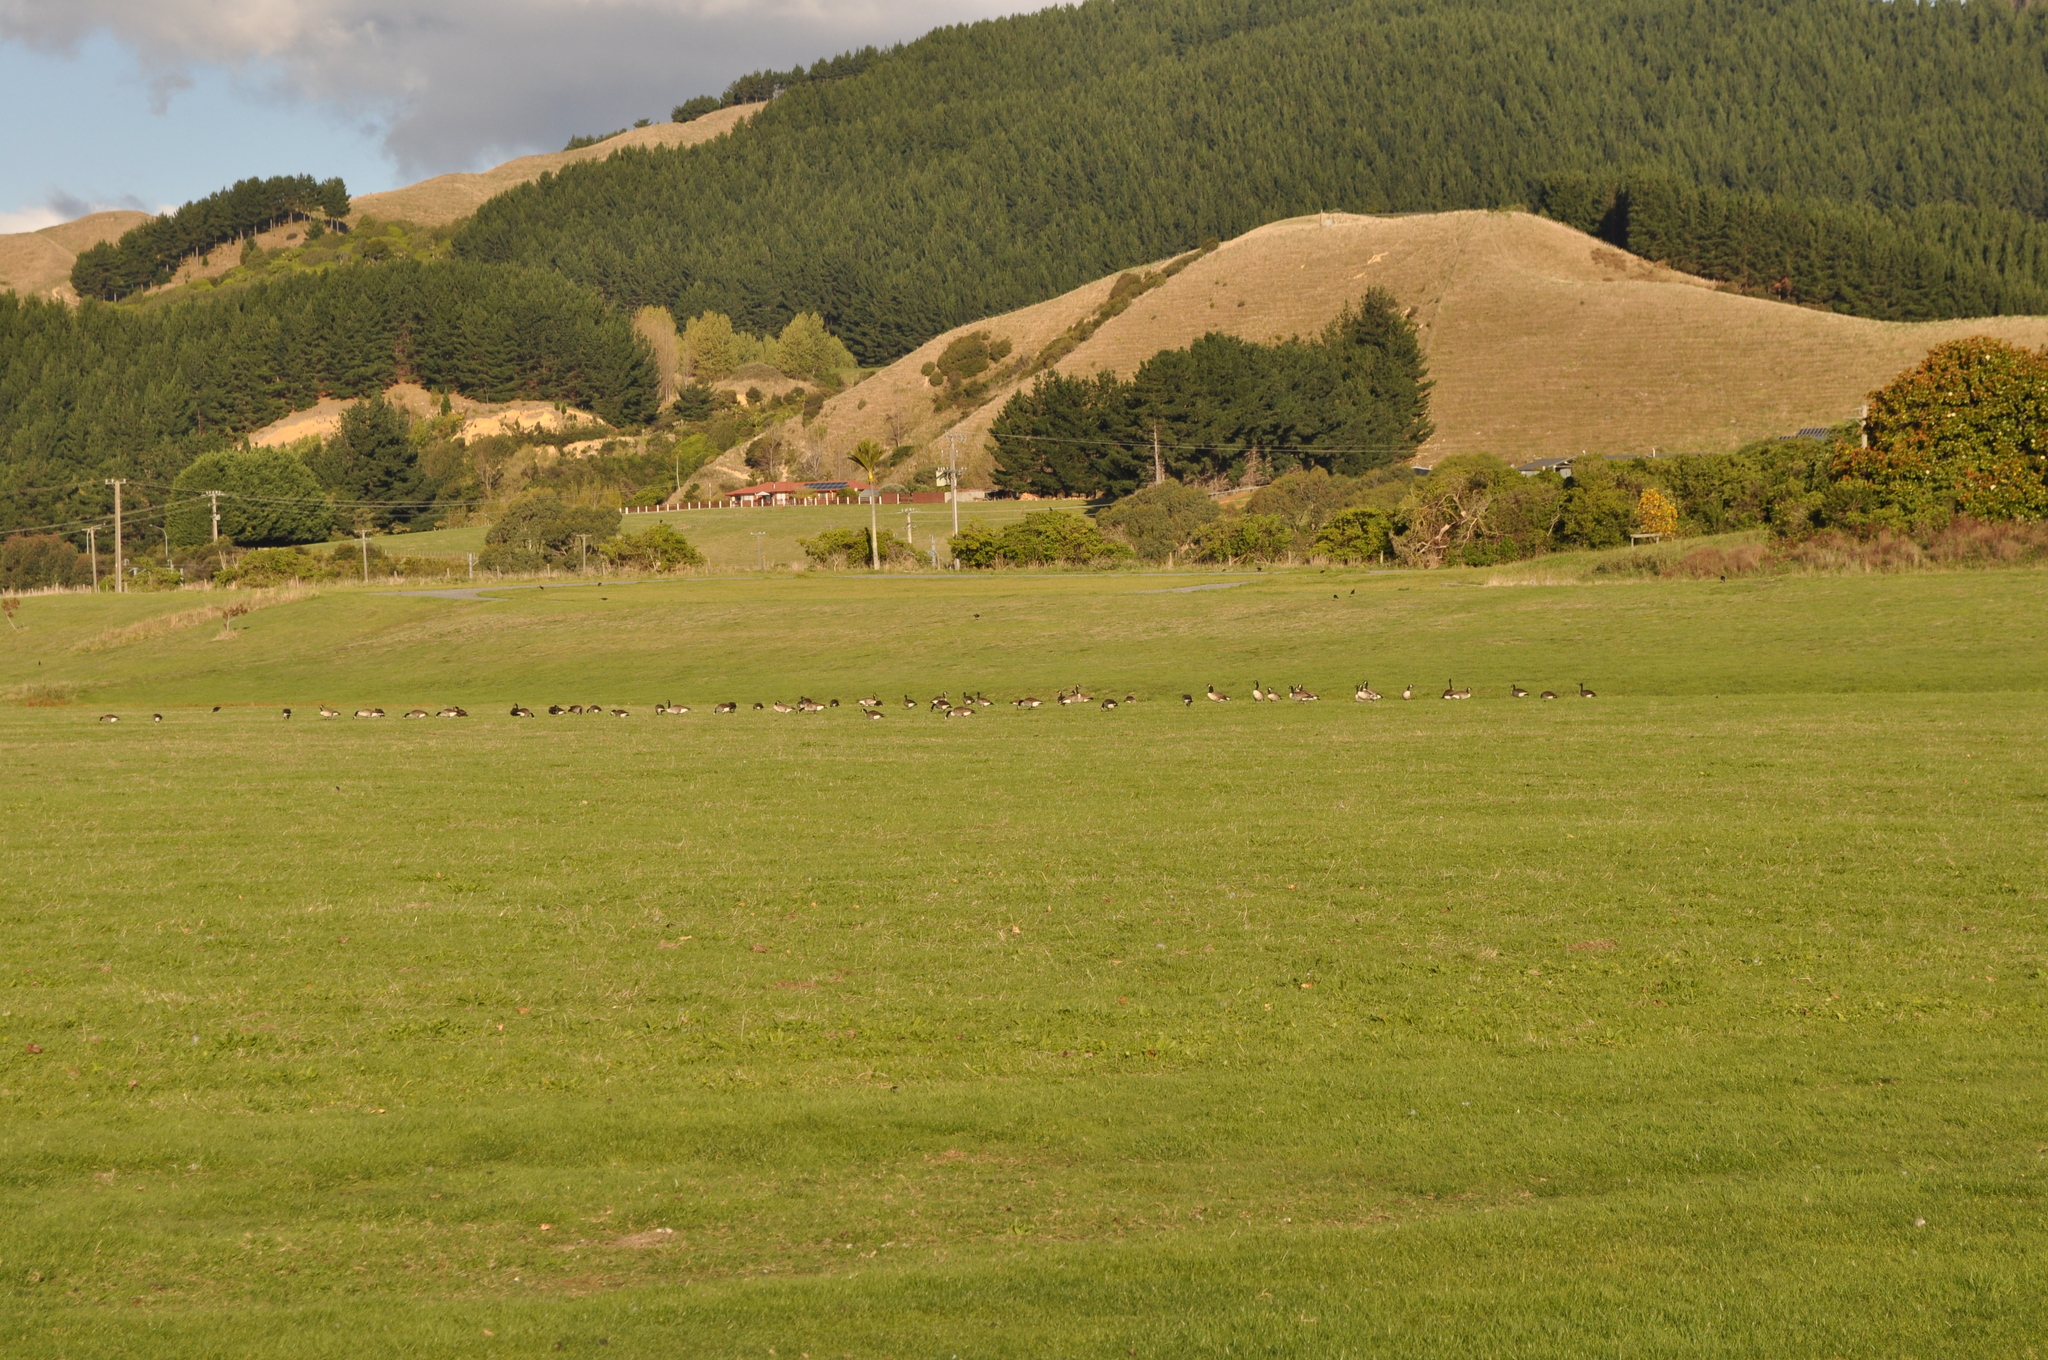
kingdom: Animalia
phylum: Chordata
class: Aves
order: Anseriformes
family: Anatidae
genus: Branta
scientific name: Branta canadensis
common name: Canada goose
